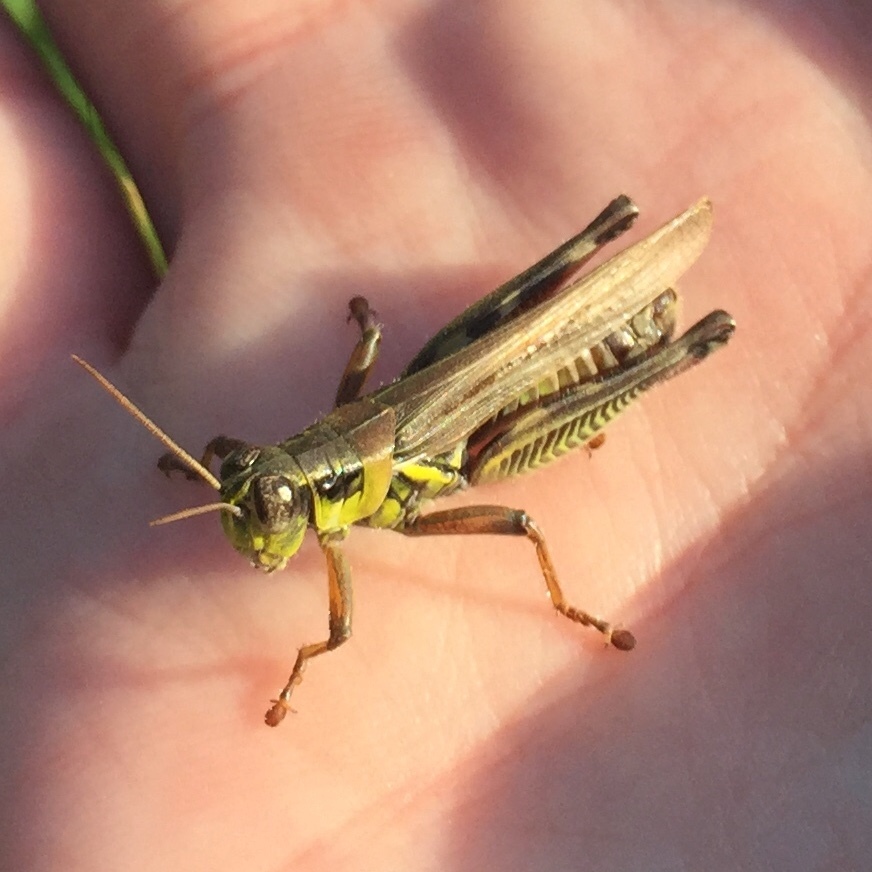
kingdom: Animalia
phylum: Arthropoda
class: Insecta
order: Orthoptera
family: Acrididae
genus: Melanoplus
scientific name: Melanoplus femurrubrum
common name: Red-legged grasshopper
